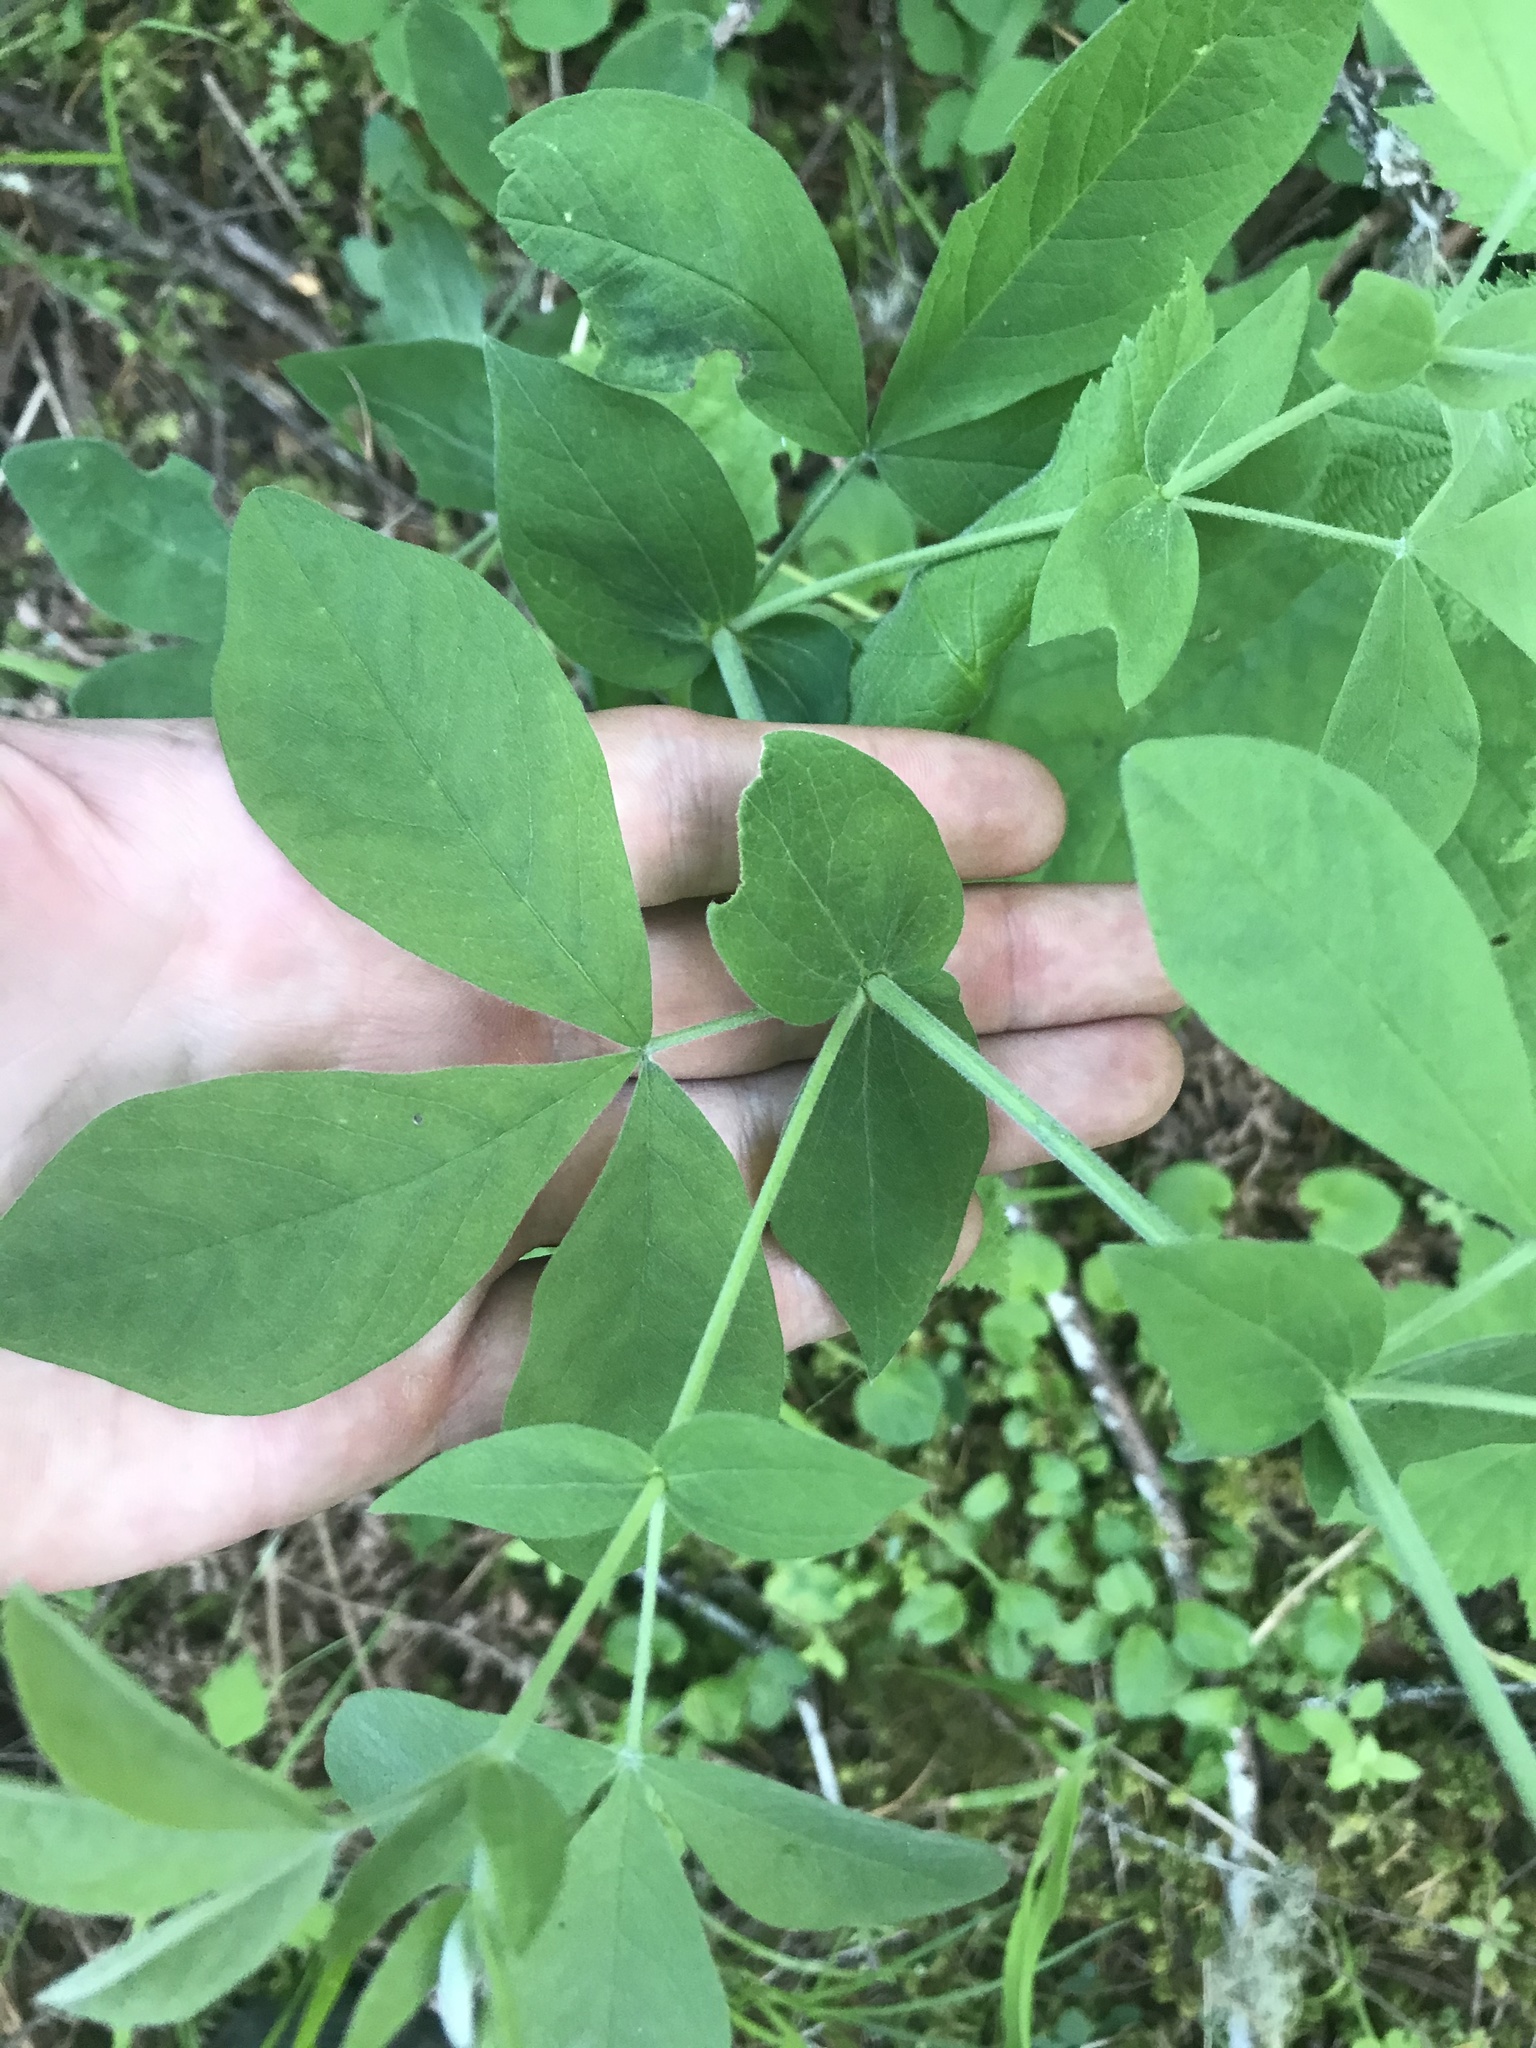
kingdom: Plantae
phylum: Tracheophyta
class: Magnoliopsida
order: Fabales
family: Fabaceae
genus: Thermopsis
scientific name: Thermopsis gracilis
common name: Slender golden-banner
